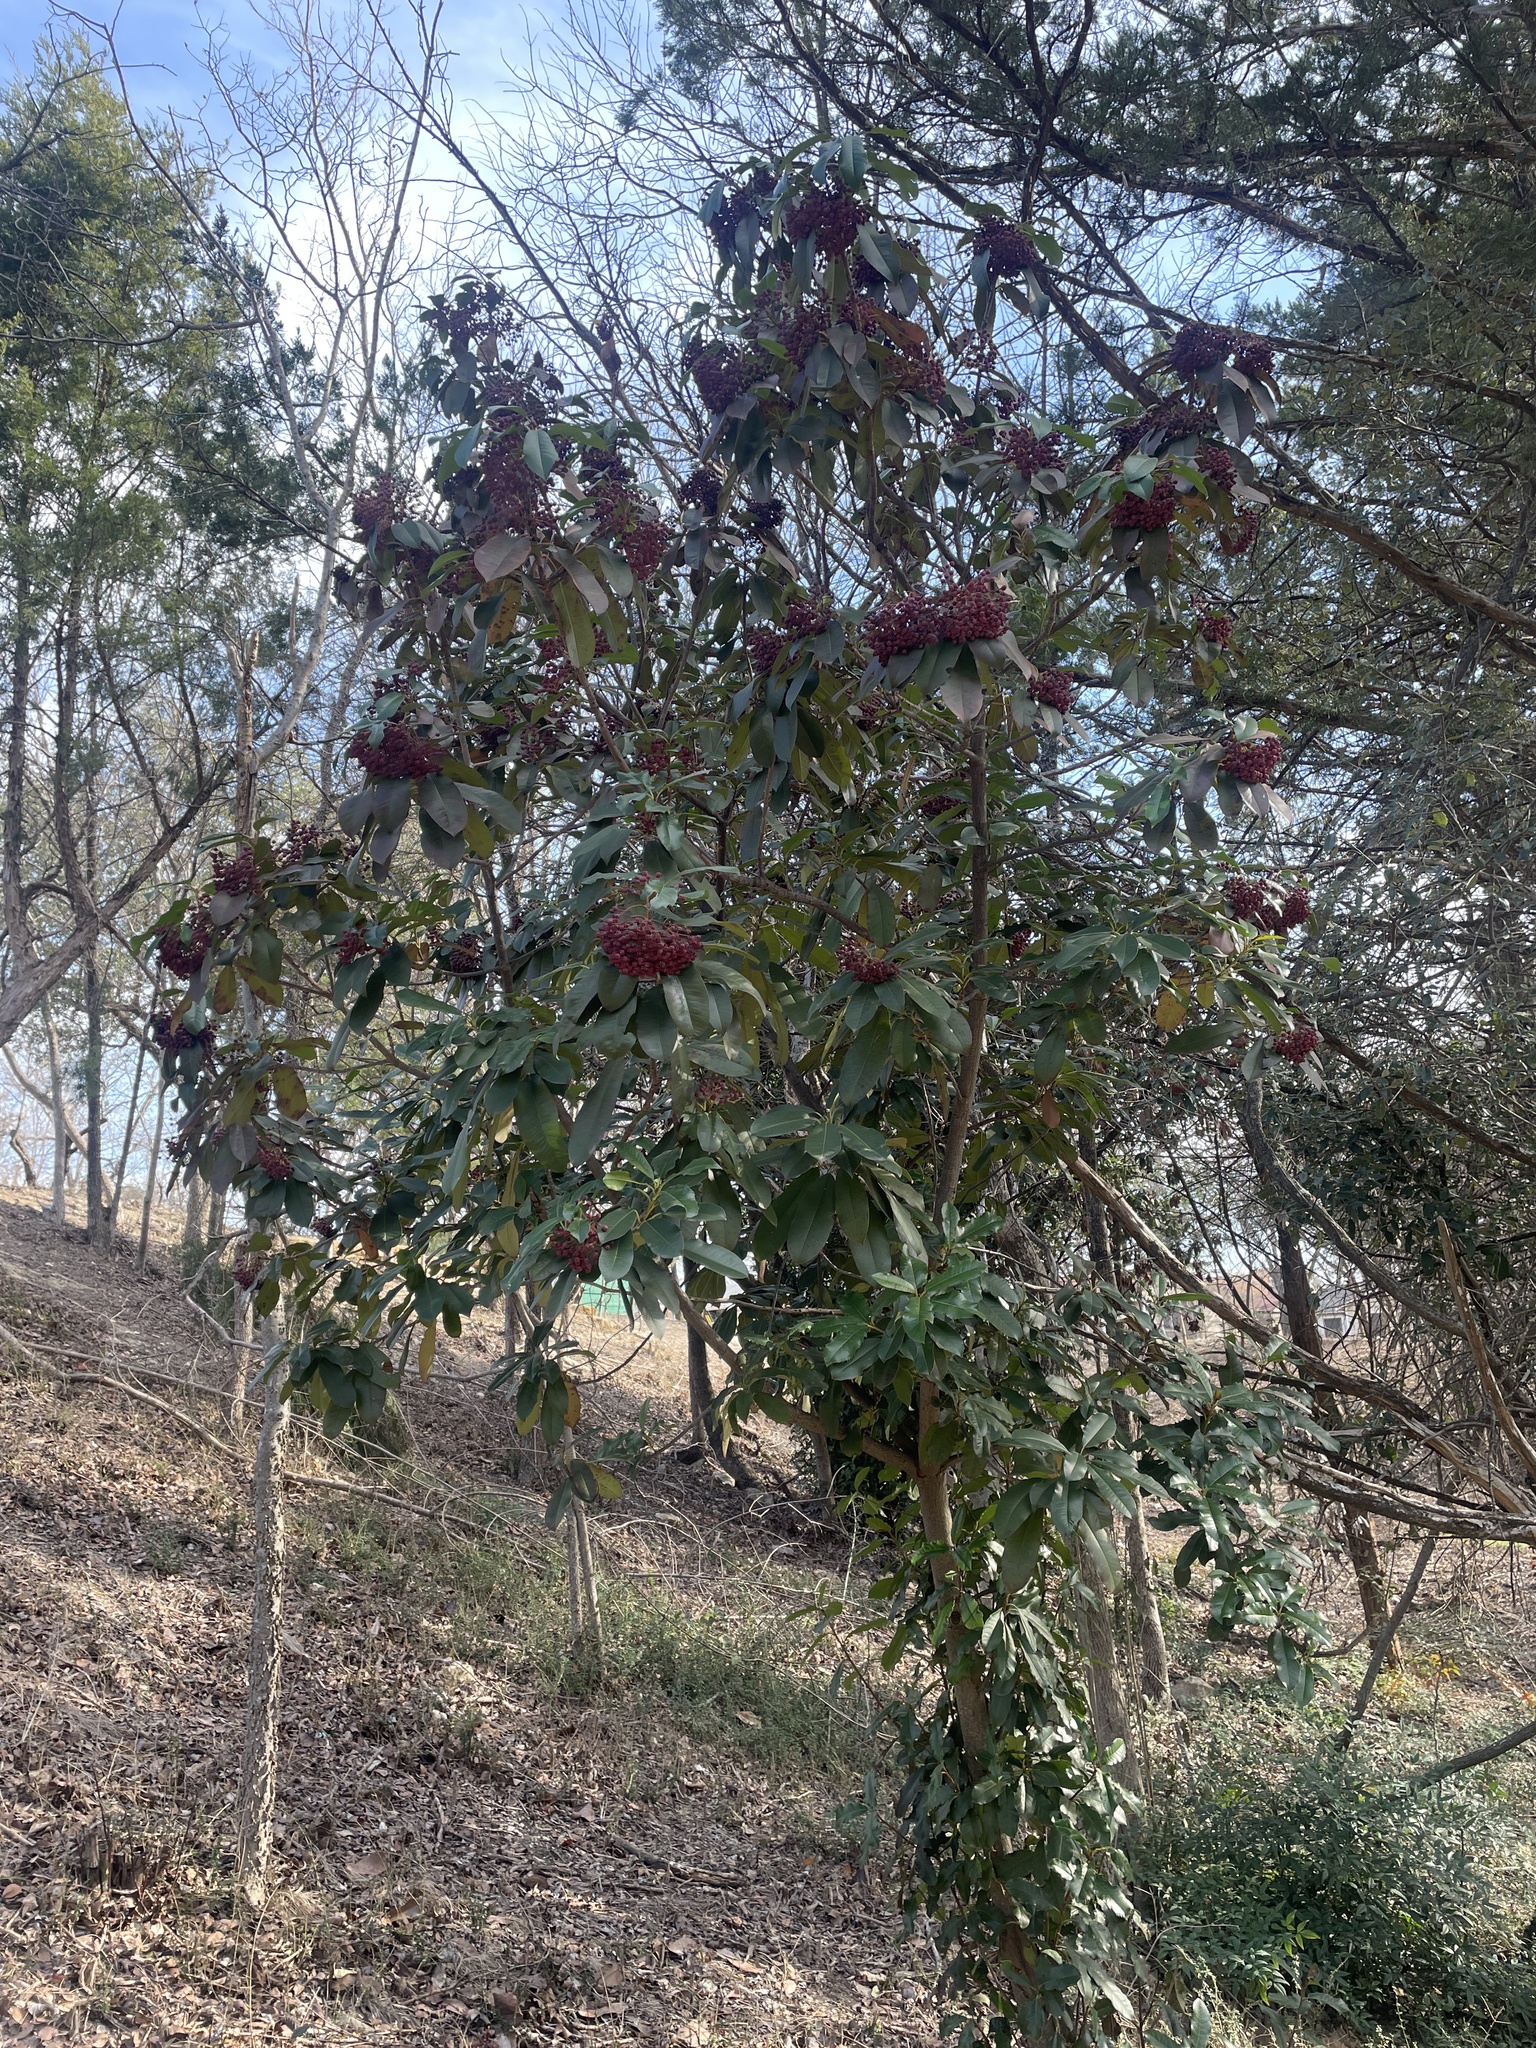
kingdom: Plantae
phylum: Tracheophyta
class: Magnoliopsida
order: Rosales
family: Rosaceae
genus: Photinia
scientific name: Photinia serratifolia
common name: Taiwanese photinia
